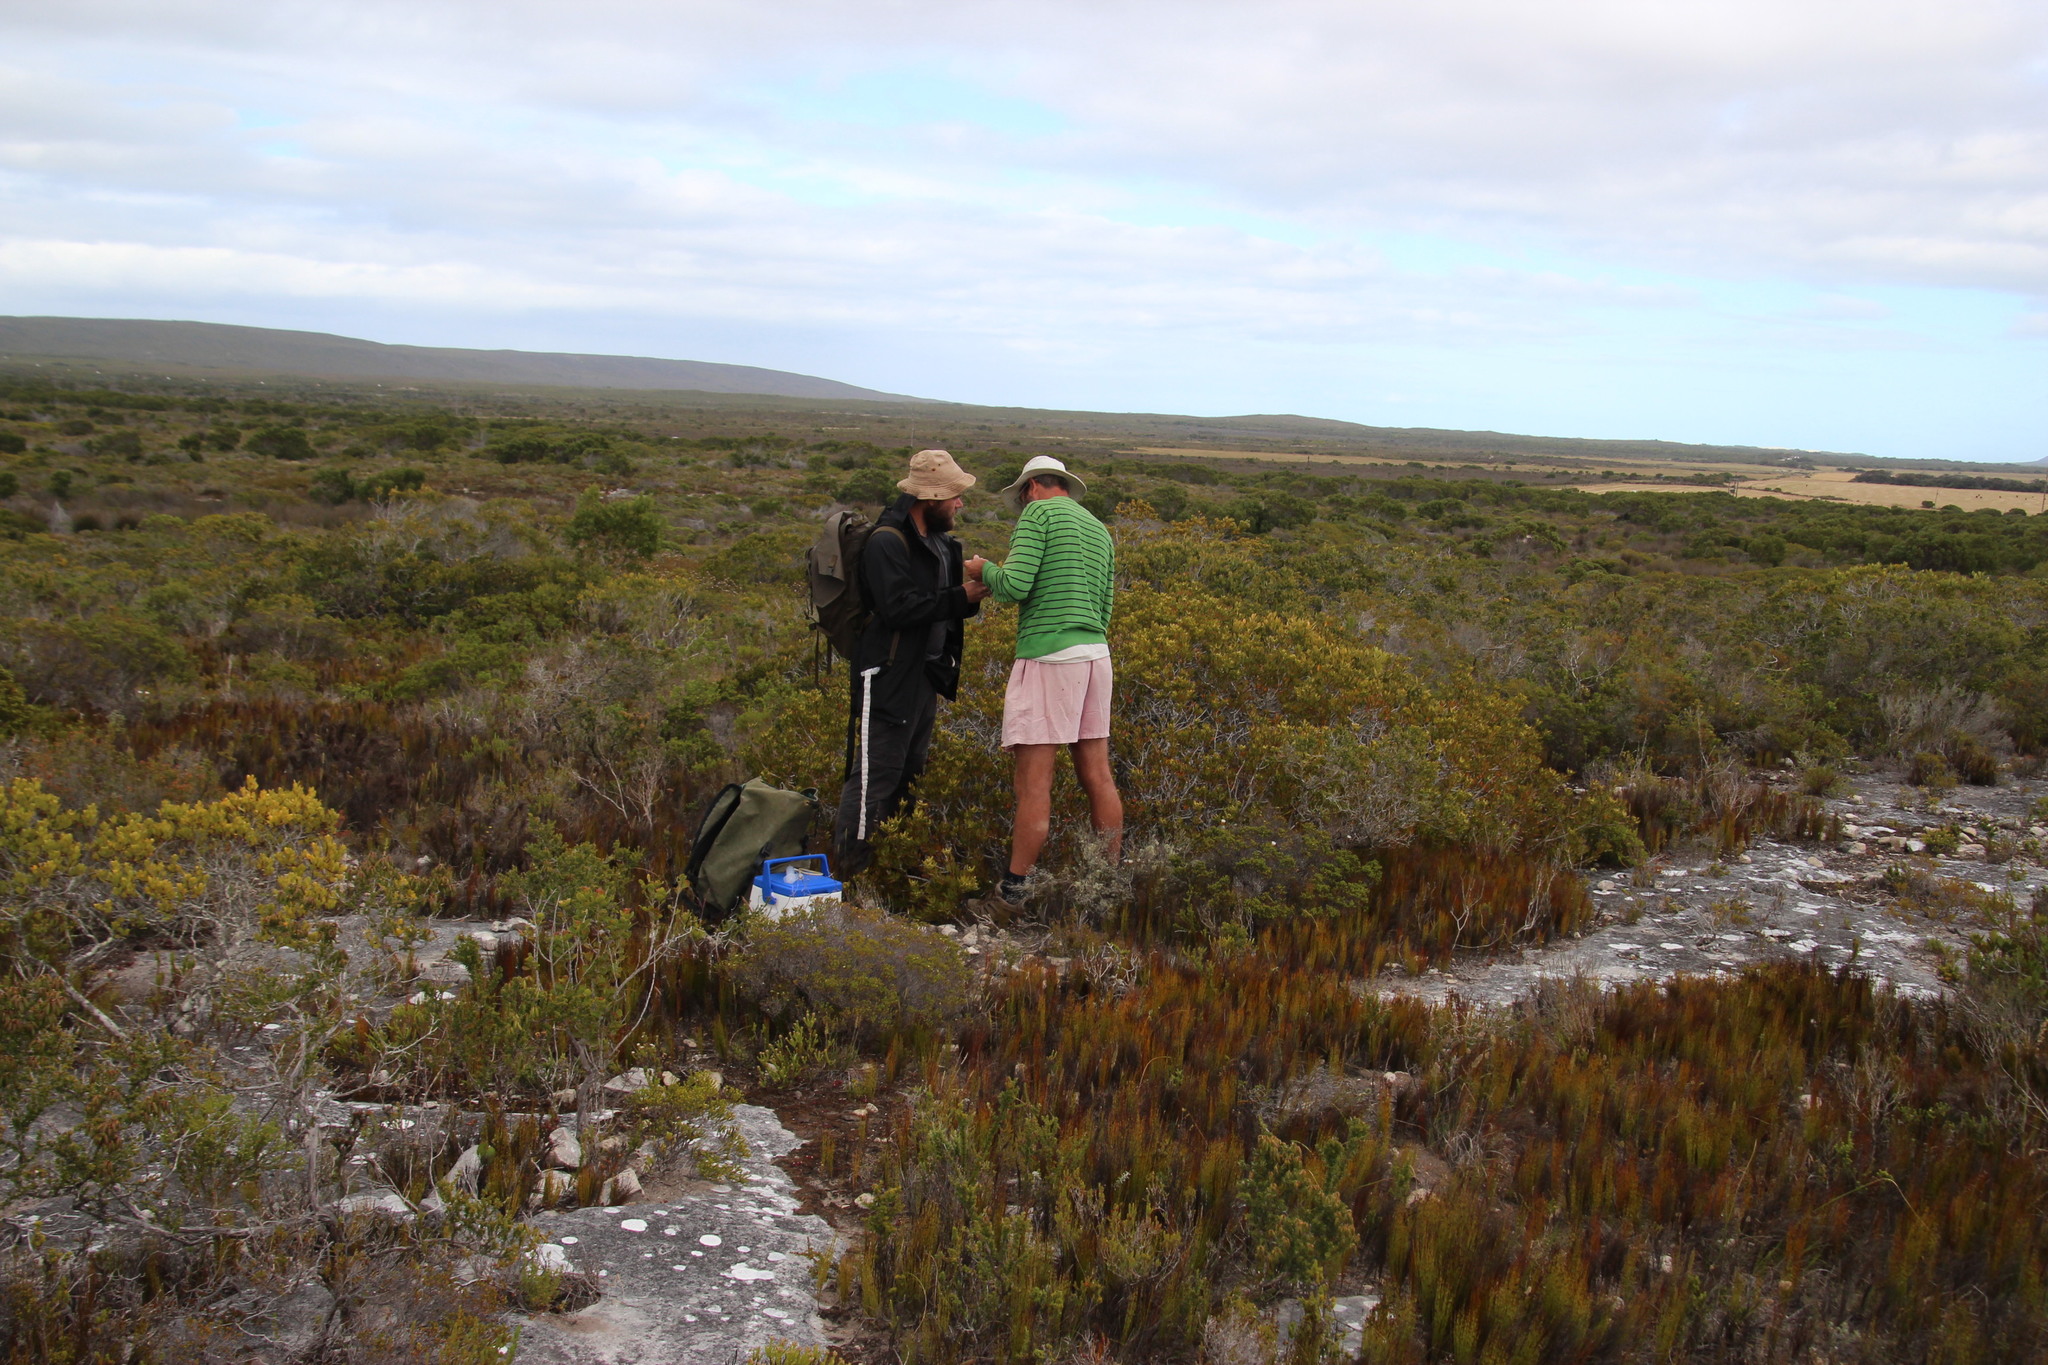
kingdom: Plantae
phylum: Tracheophyta
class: Magnoliopsida
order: Proteales
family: Proteaceae
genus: Leucadendron
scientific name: Leucadendron muirii
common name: Silver-ball conebush
